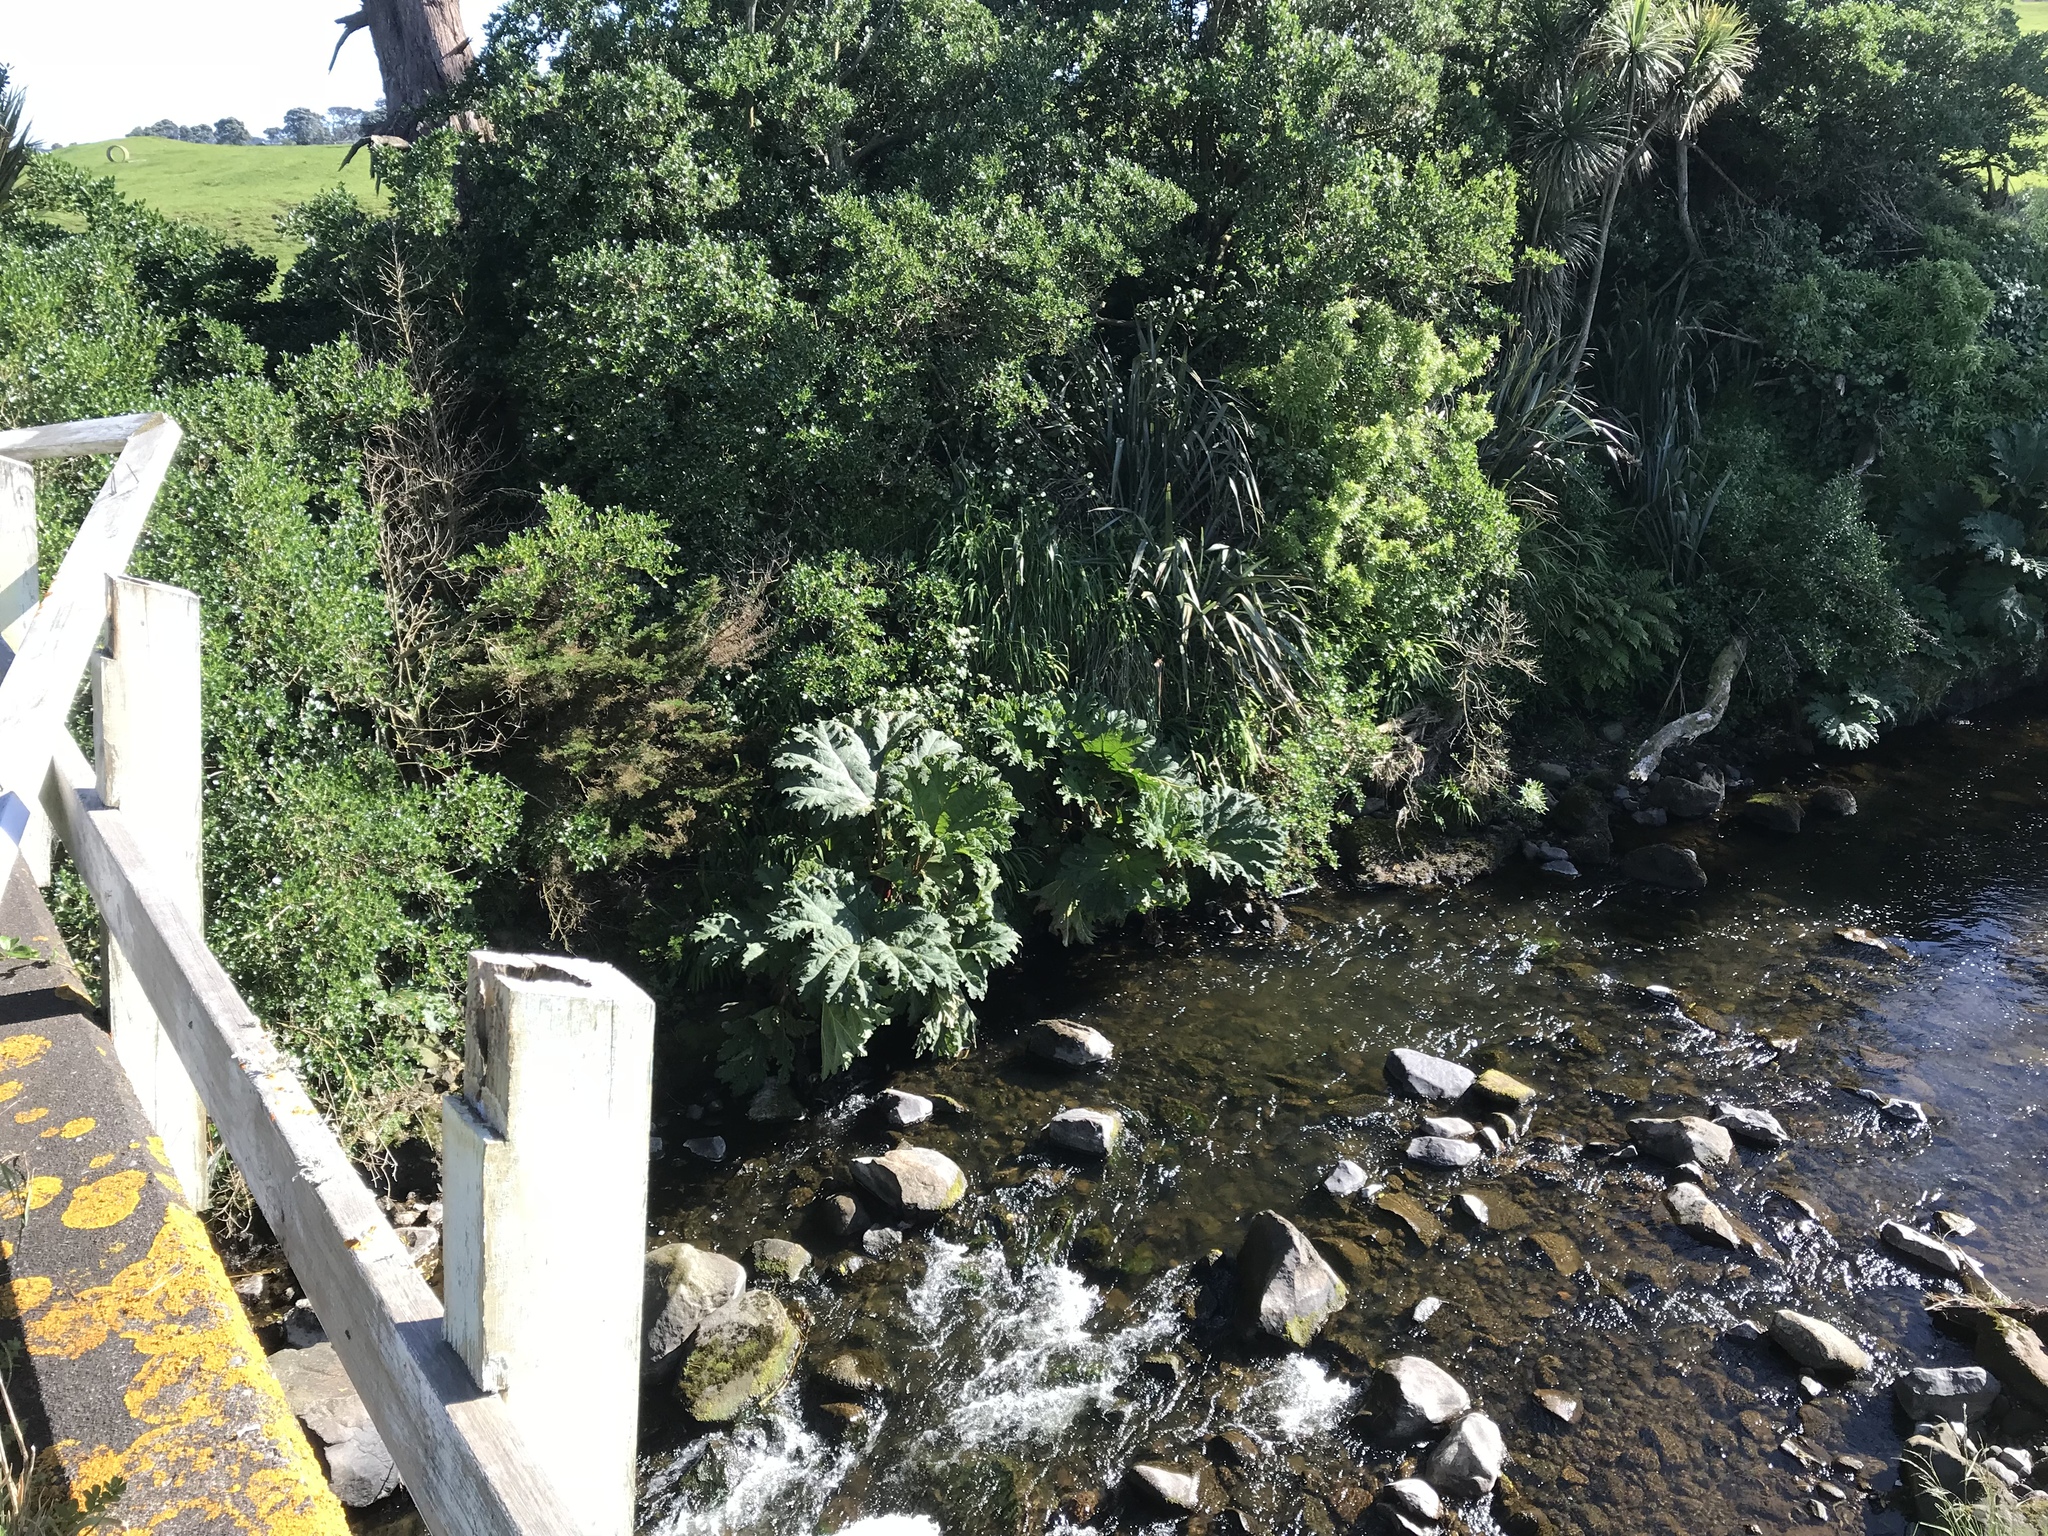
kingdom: Plantae
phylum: Tracheophyta
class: Magnoliopsida
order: Gunnerales
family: Gunneraceae
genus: Gunnera
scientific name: Gunnera tinctoria
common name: Giant-rhubarb
